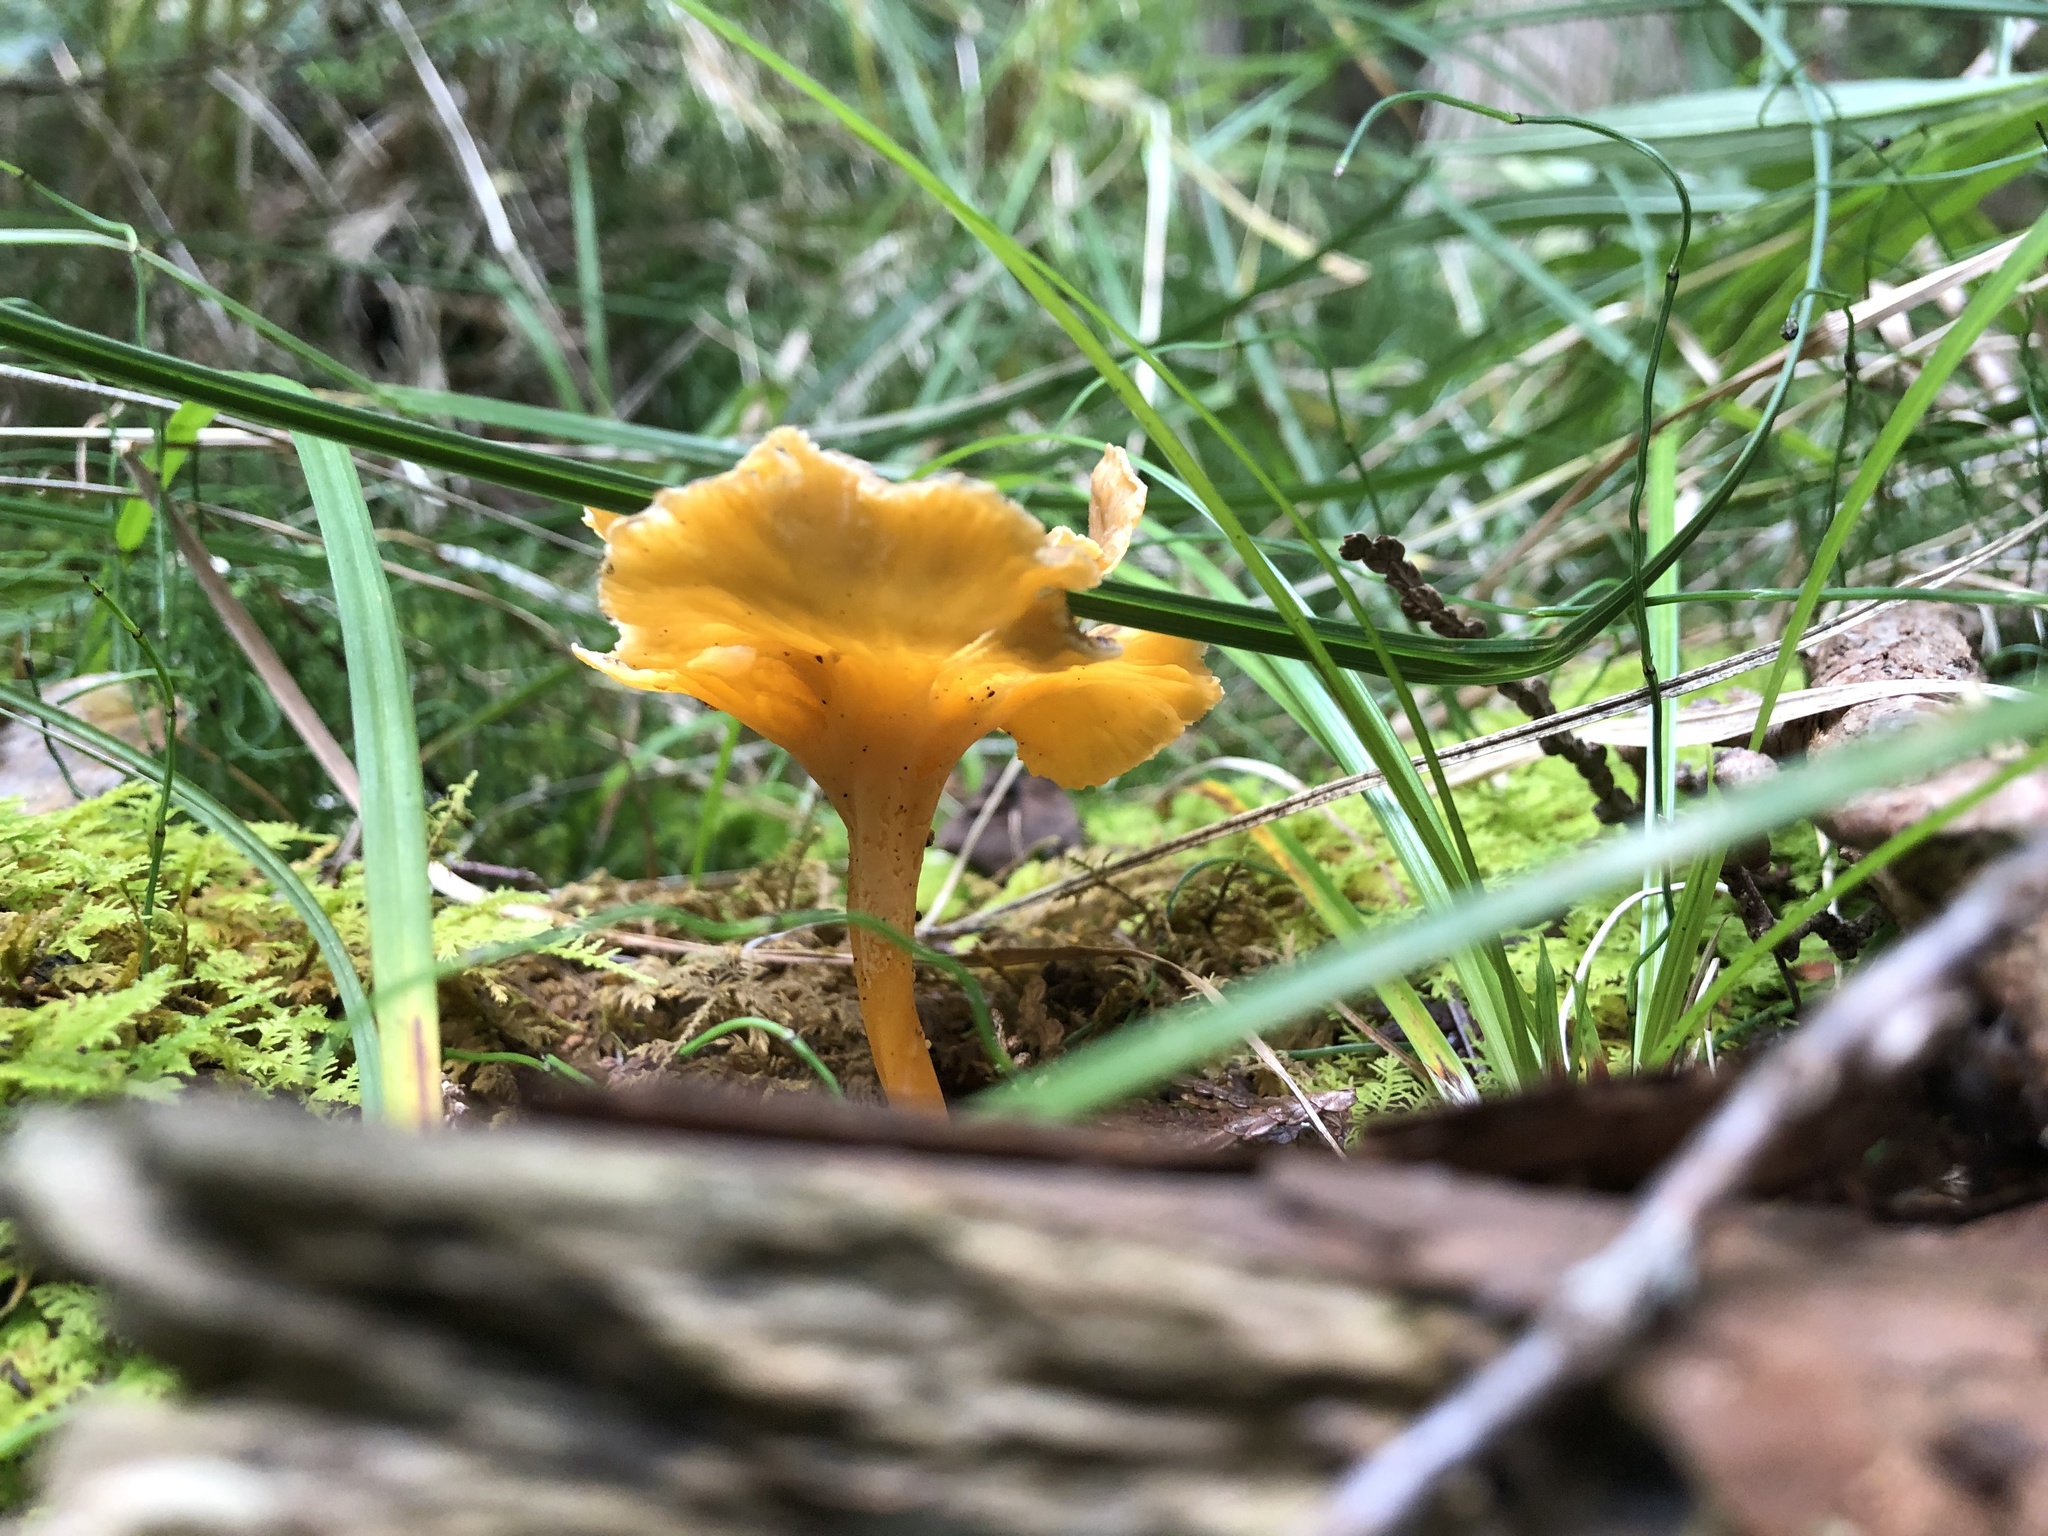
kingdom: Fungi
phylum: Basidiomycota
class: Agaricomycetes
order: Cantharellales
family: Hydnaceae
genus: Craterellus
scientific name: Craterellus ignicolor
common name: Flame chanterelle
